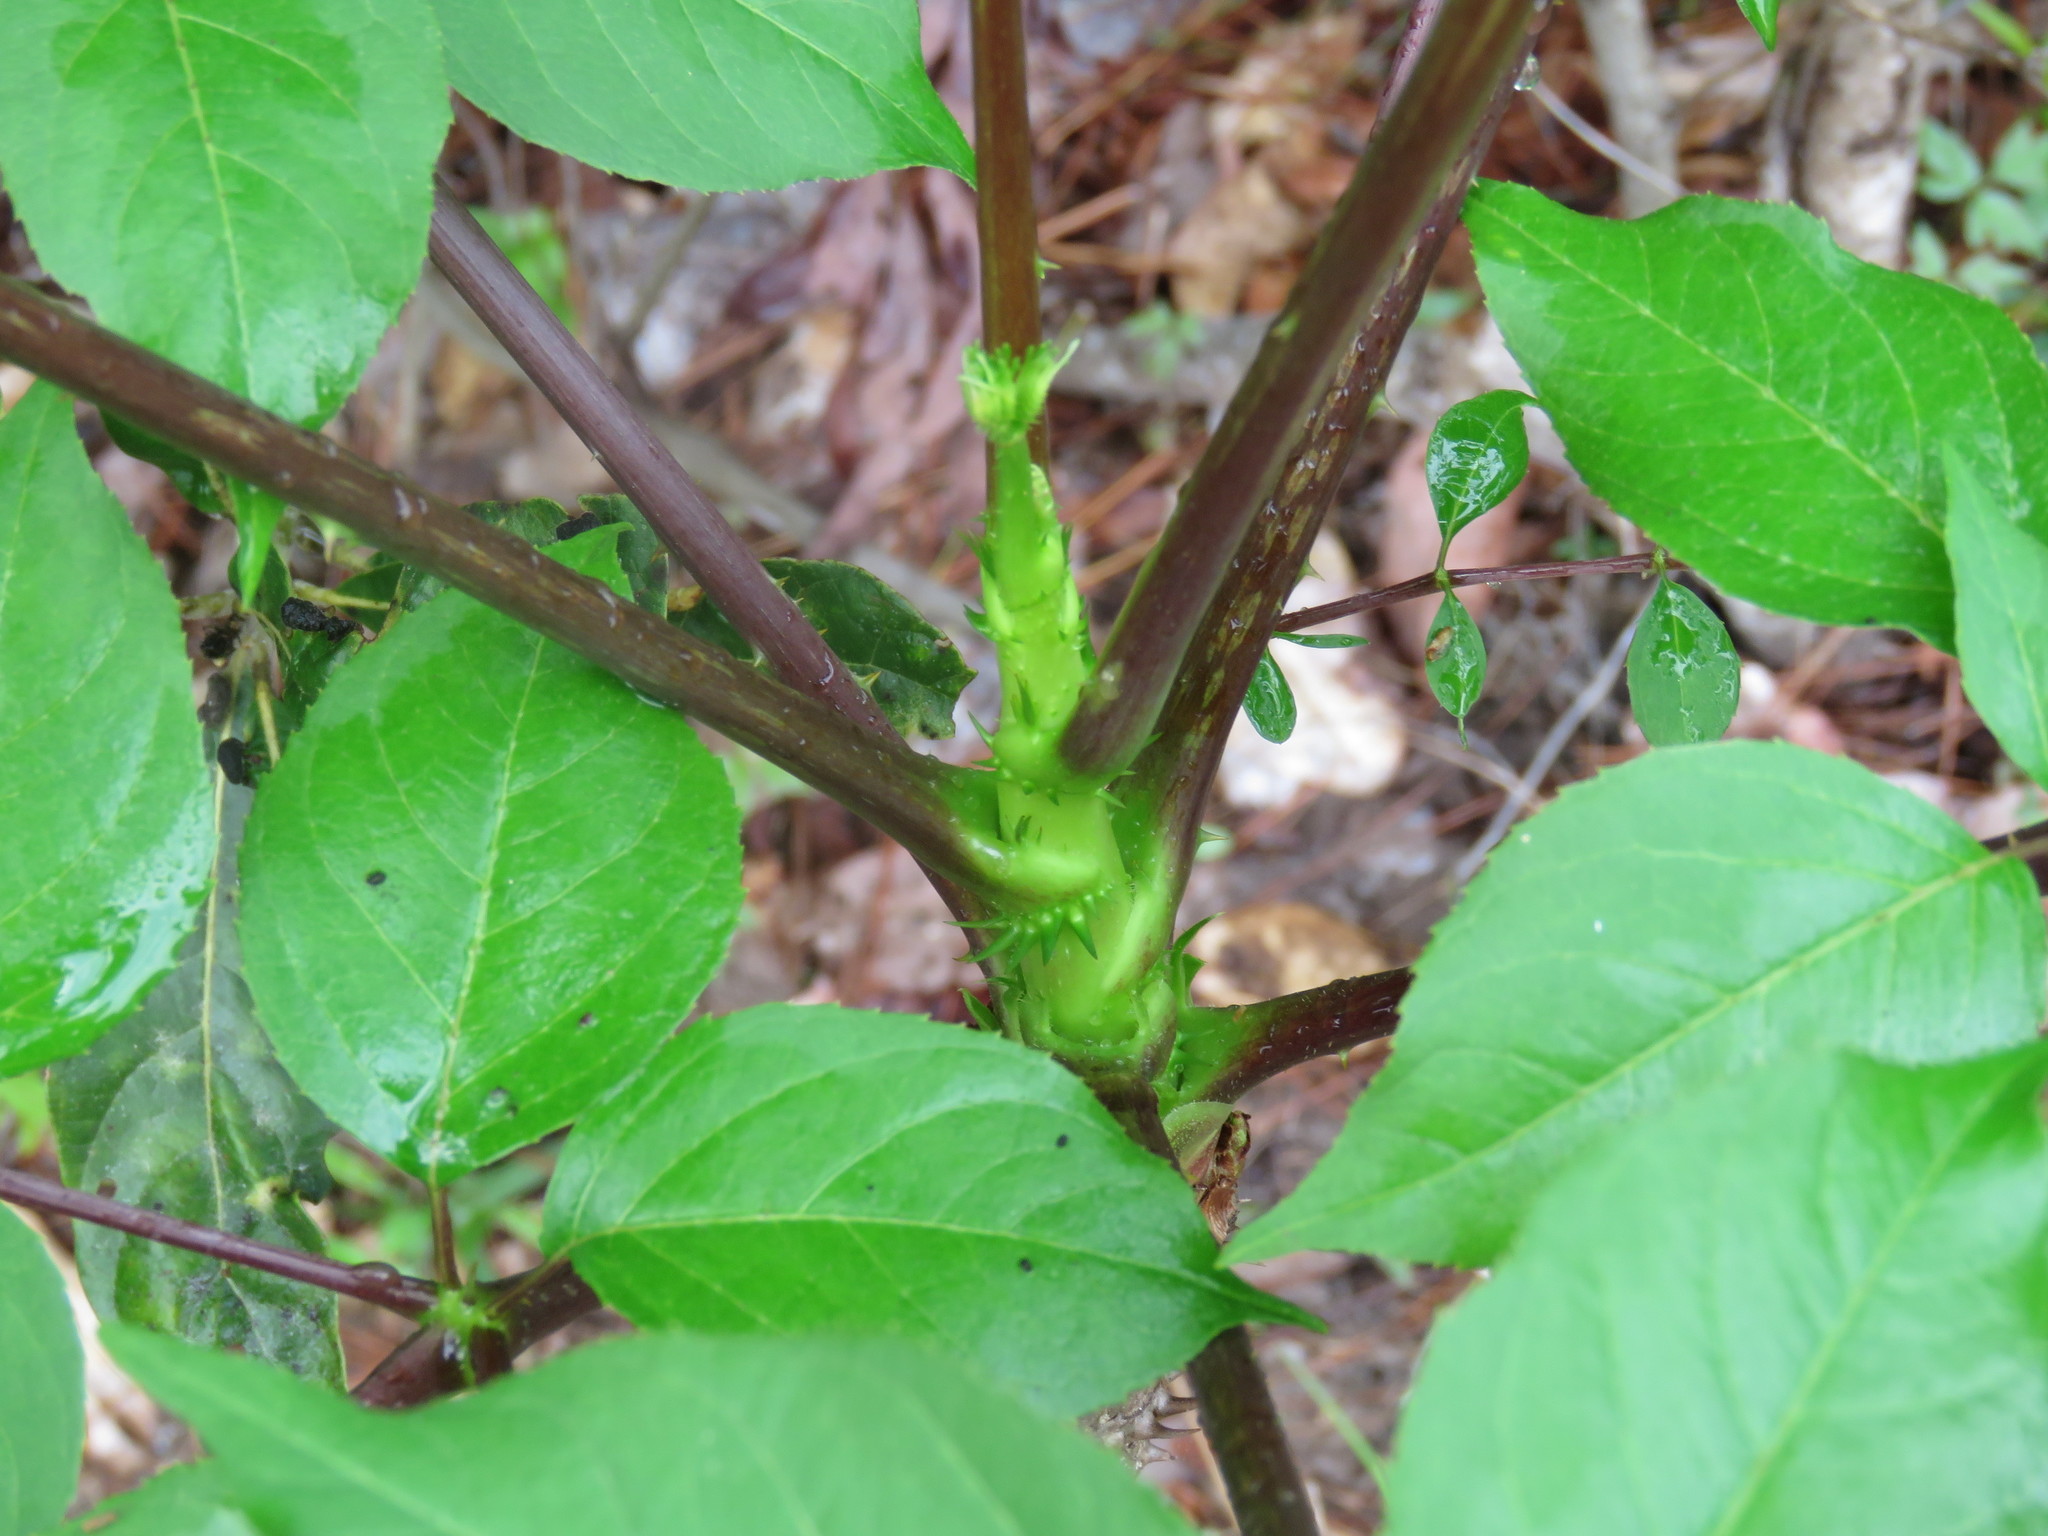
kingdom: Plantae
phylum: Tracheophyta
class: Magnoliopsida
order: Apiales
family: Araliaceae
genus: Aralia
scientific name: Aralia spinosa
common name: Hercules'-club
